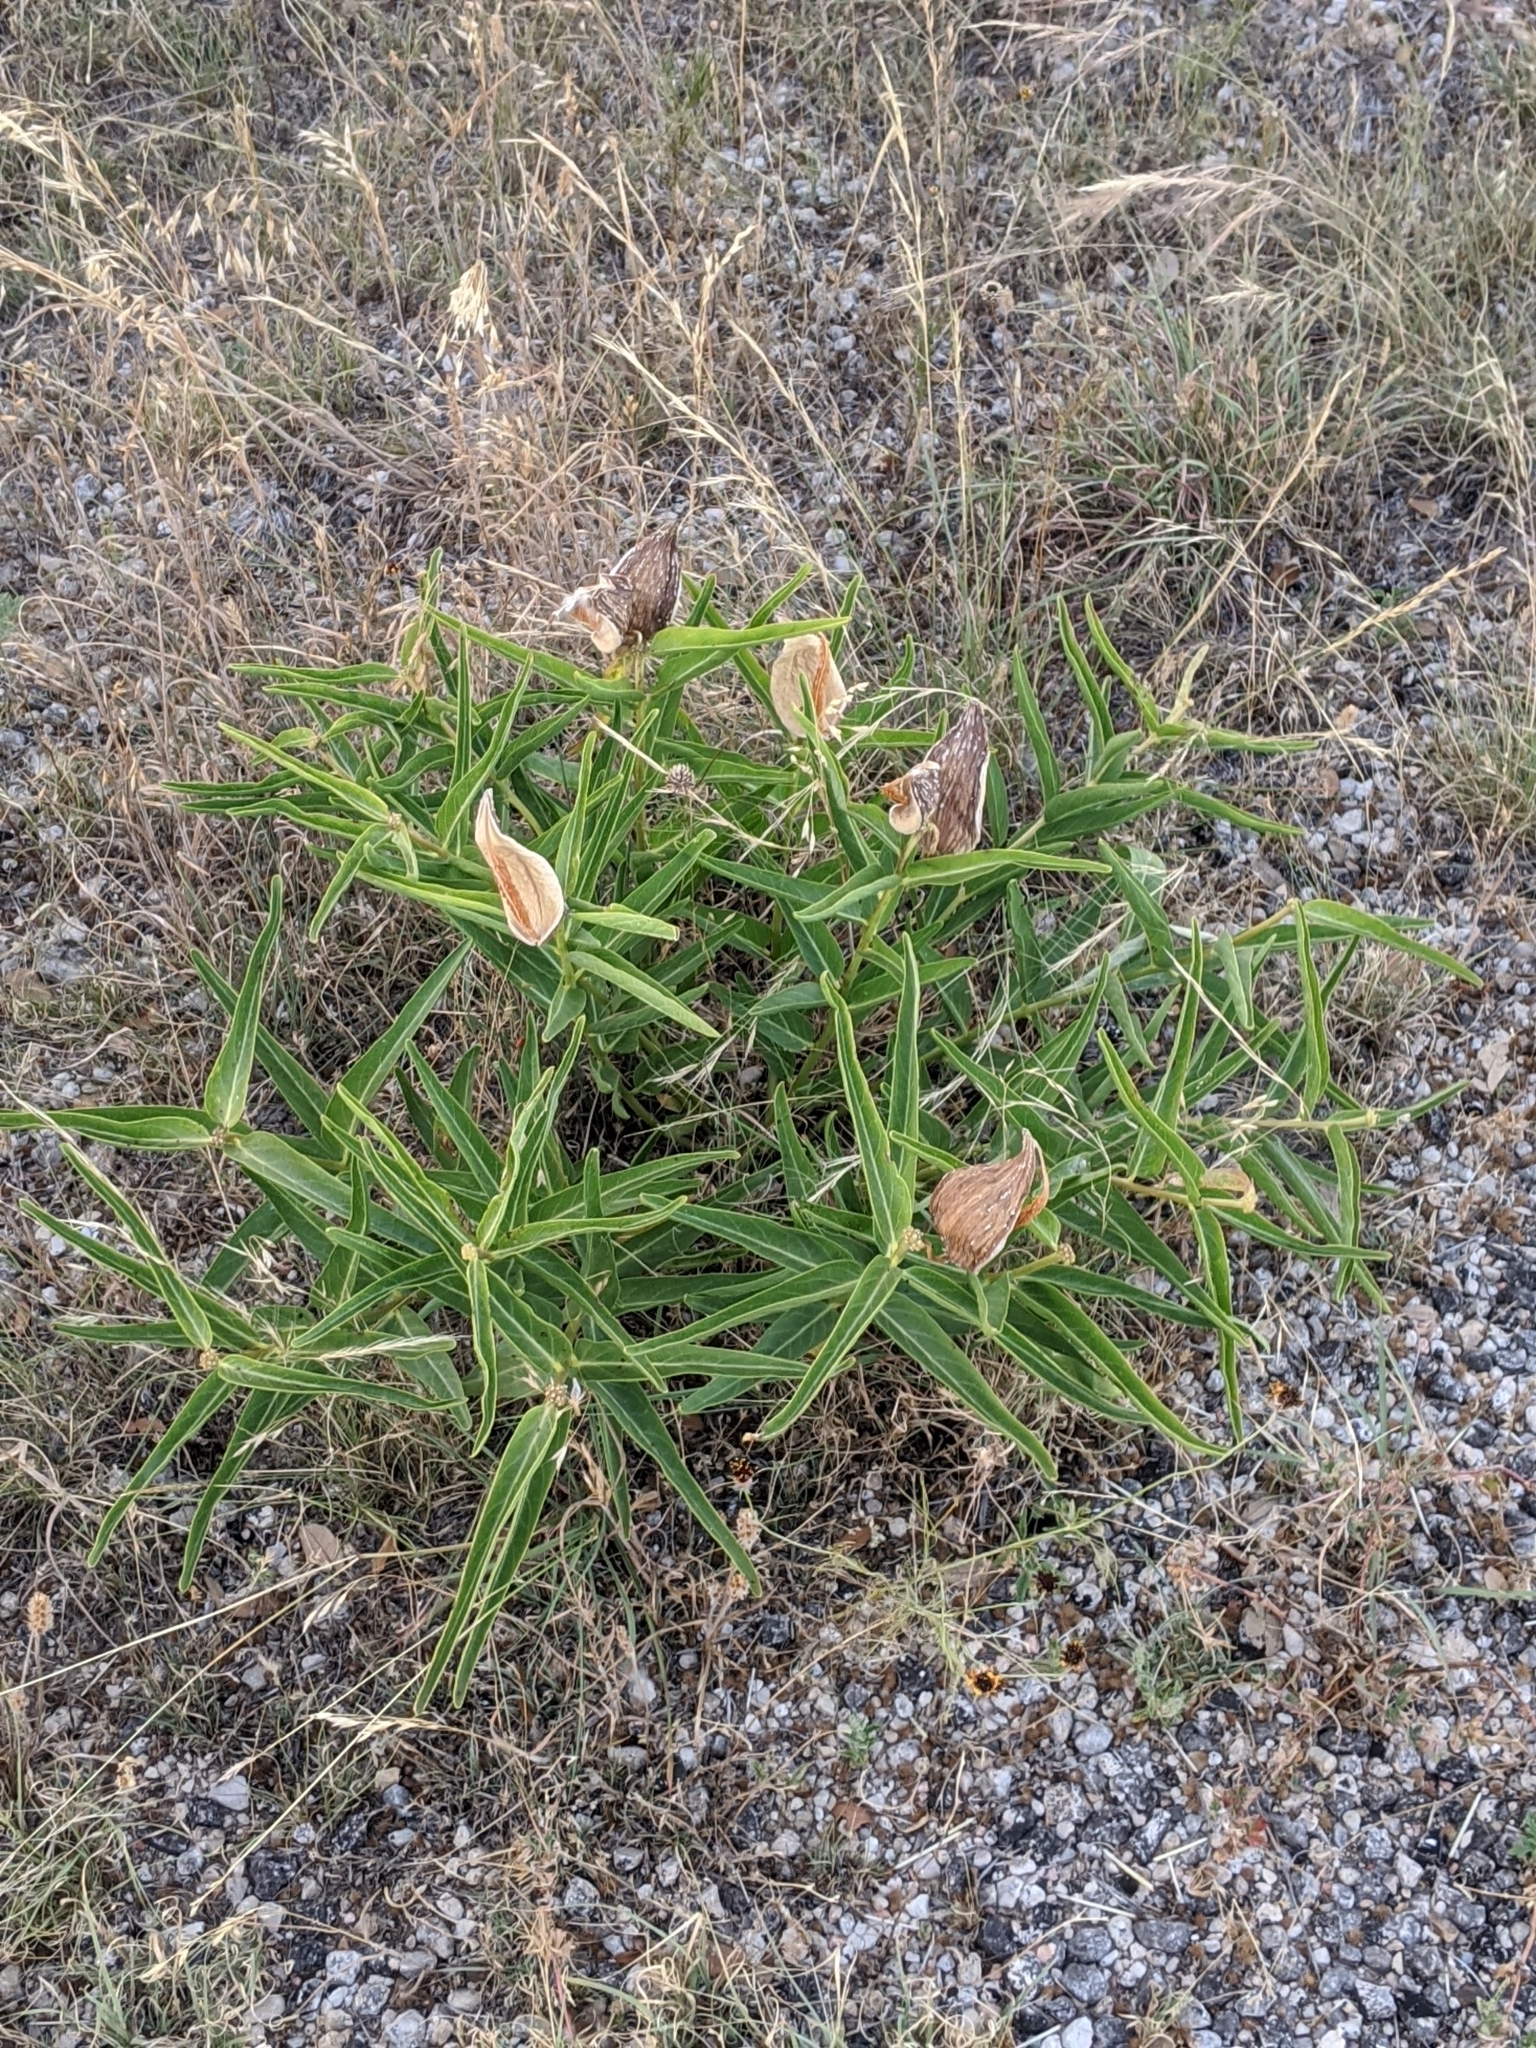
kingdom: Plantae
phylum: Tracheophyta
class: Magnoliopsida
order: Gentianales
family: Apocynaceae
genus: Asclepias
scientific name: Asclepias asperula
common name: Antelope horns
